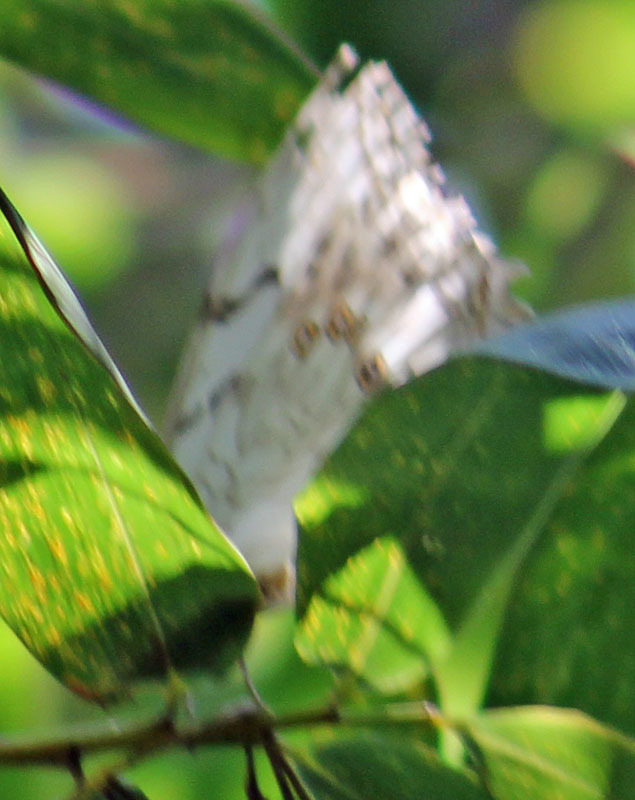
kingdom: Animalia
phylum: Arthropoda
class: Insecta
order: Lepidoptera
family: Nymphalidae
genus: Morpho
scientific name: Morpho polyphemus
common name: White morpho
